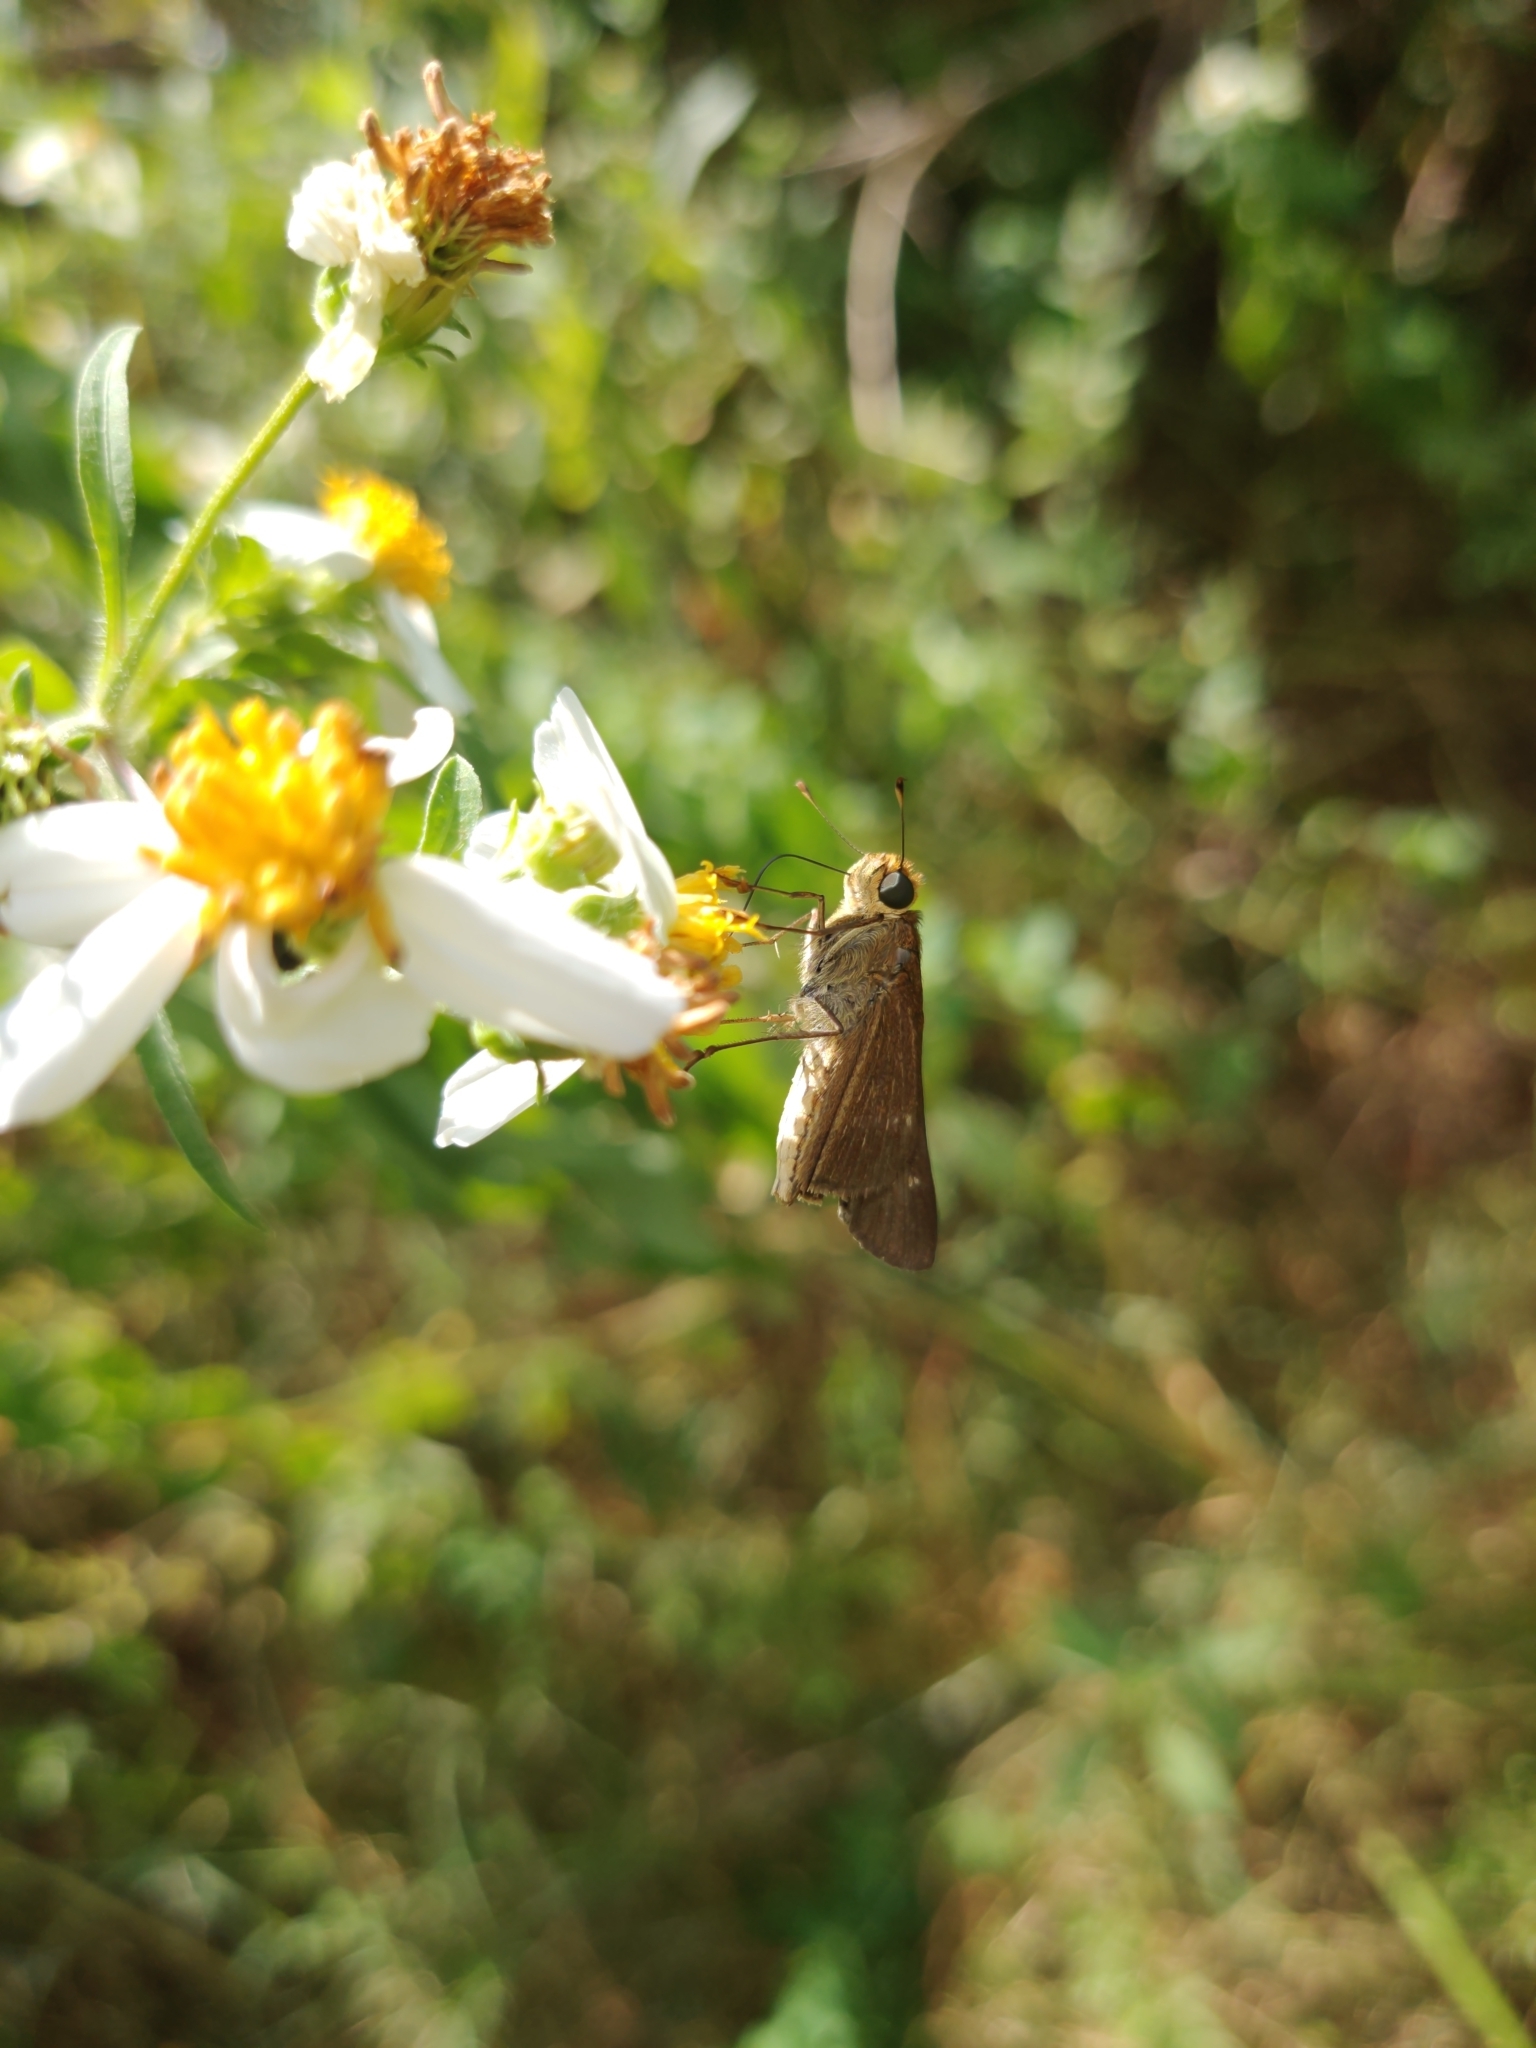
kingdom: Animalia
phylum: Arthropoda
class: Insecta
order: Lepidoptera
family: Hesperiidae
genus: Panoquina
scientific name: Panoquina ocola
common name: Ocola skipper
